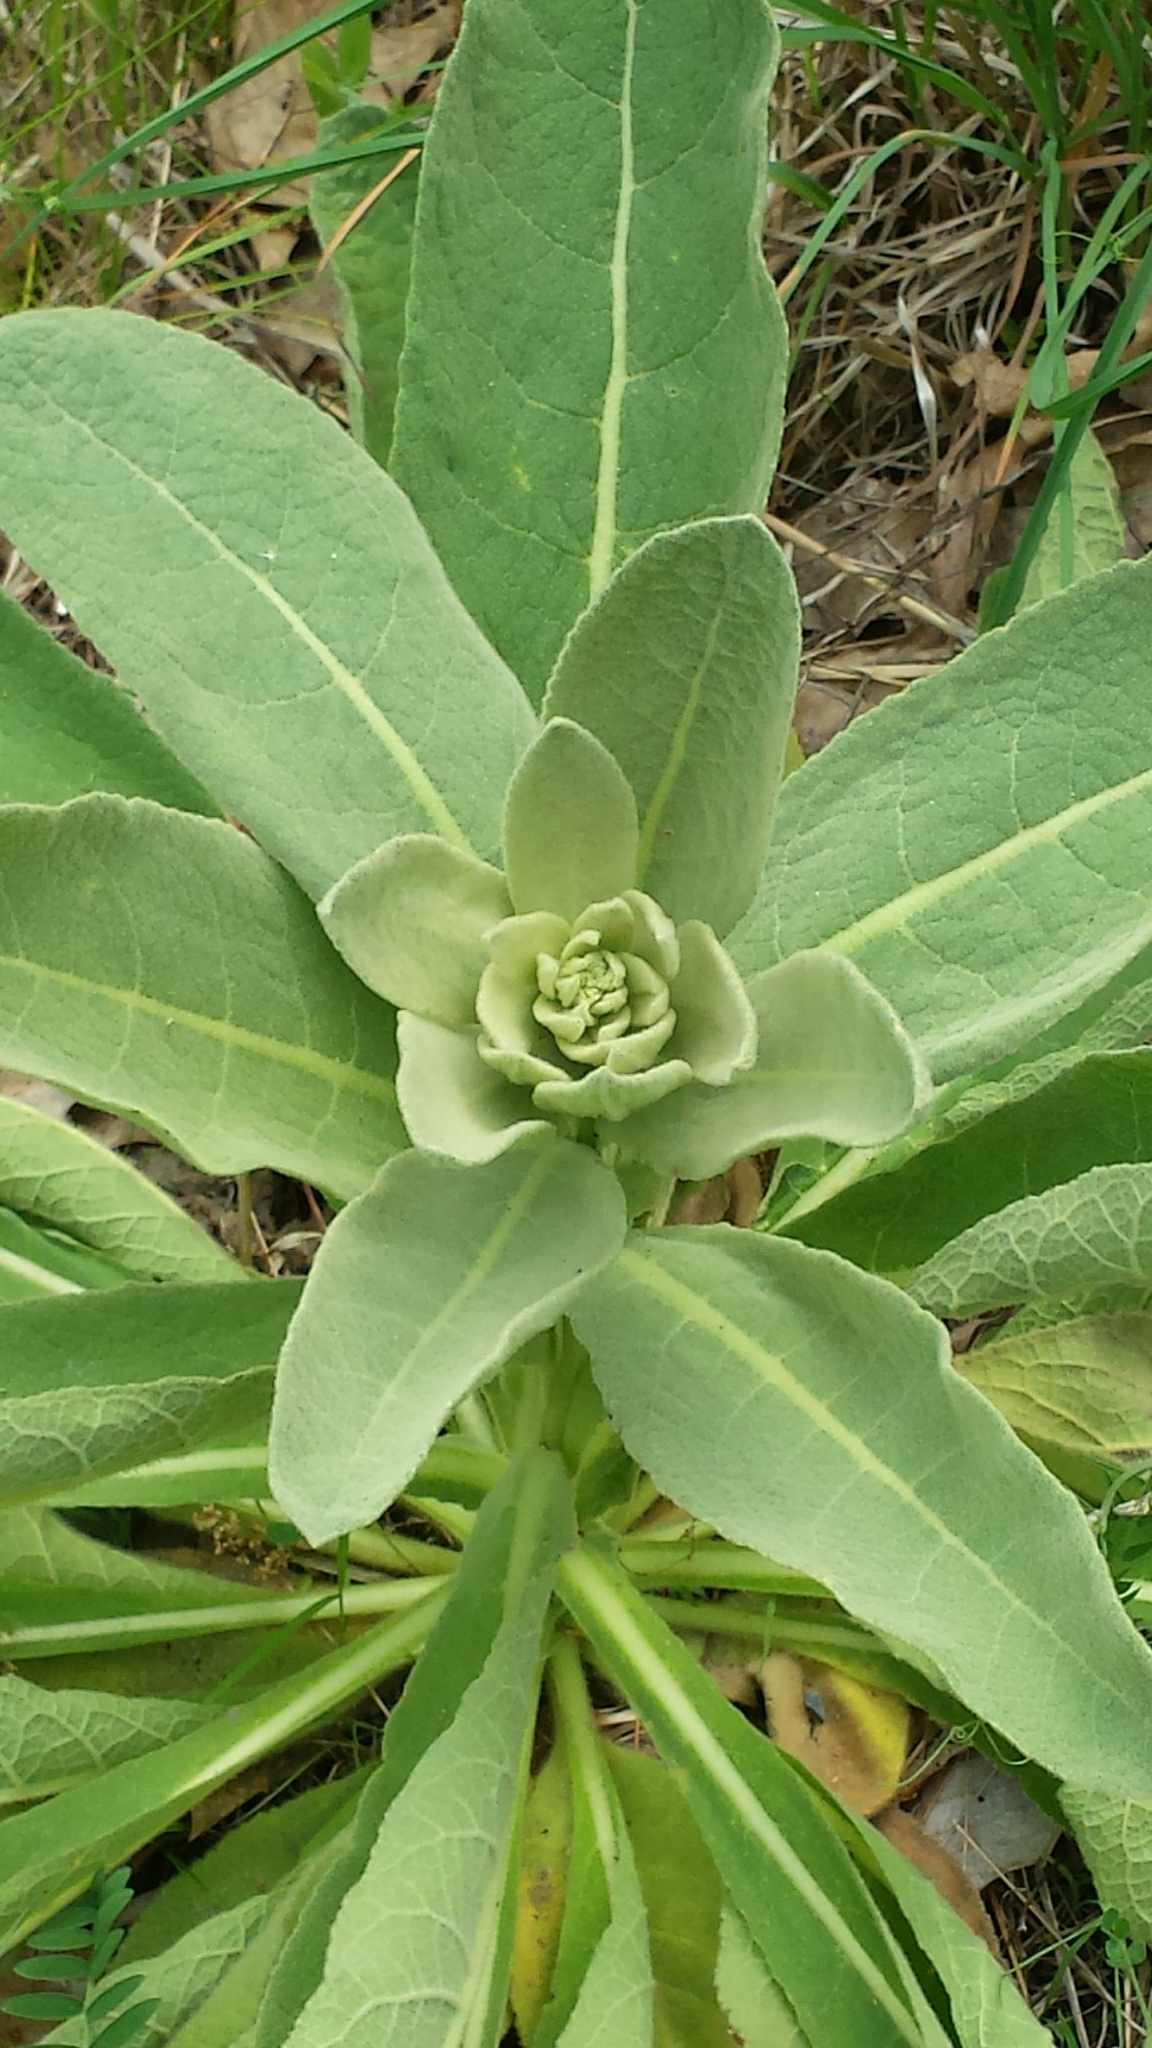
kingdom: Plantae
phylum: Tracheophyta
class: Magnoliopsida
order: Lamiales
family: Scrophulariaceae
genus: Verbascum
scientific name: Verbascum thapsus
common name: Common mullein
